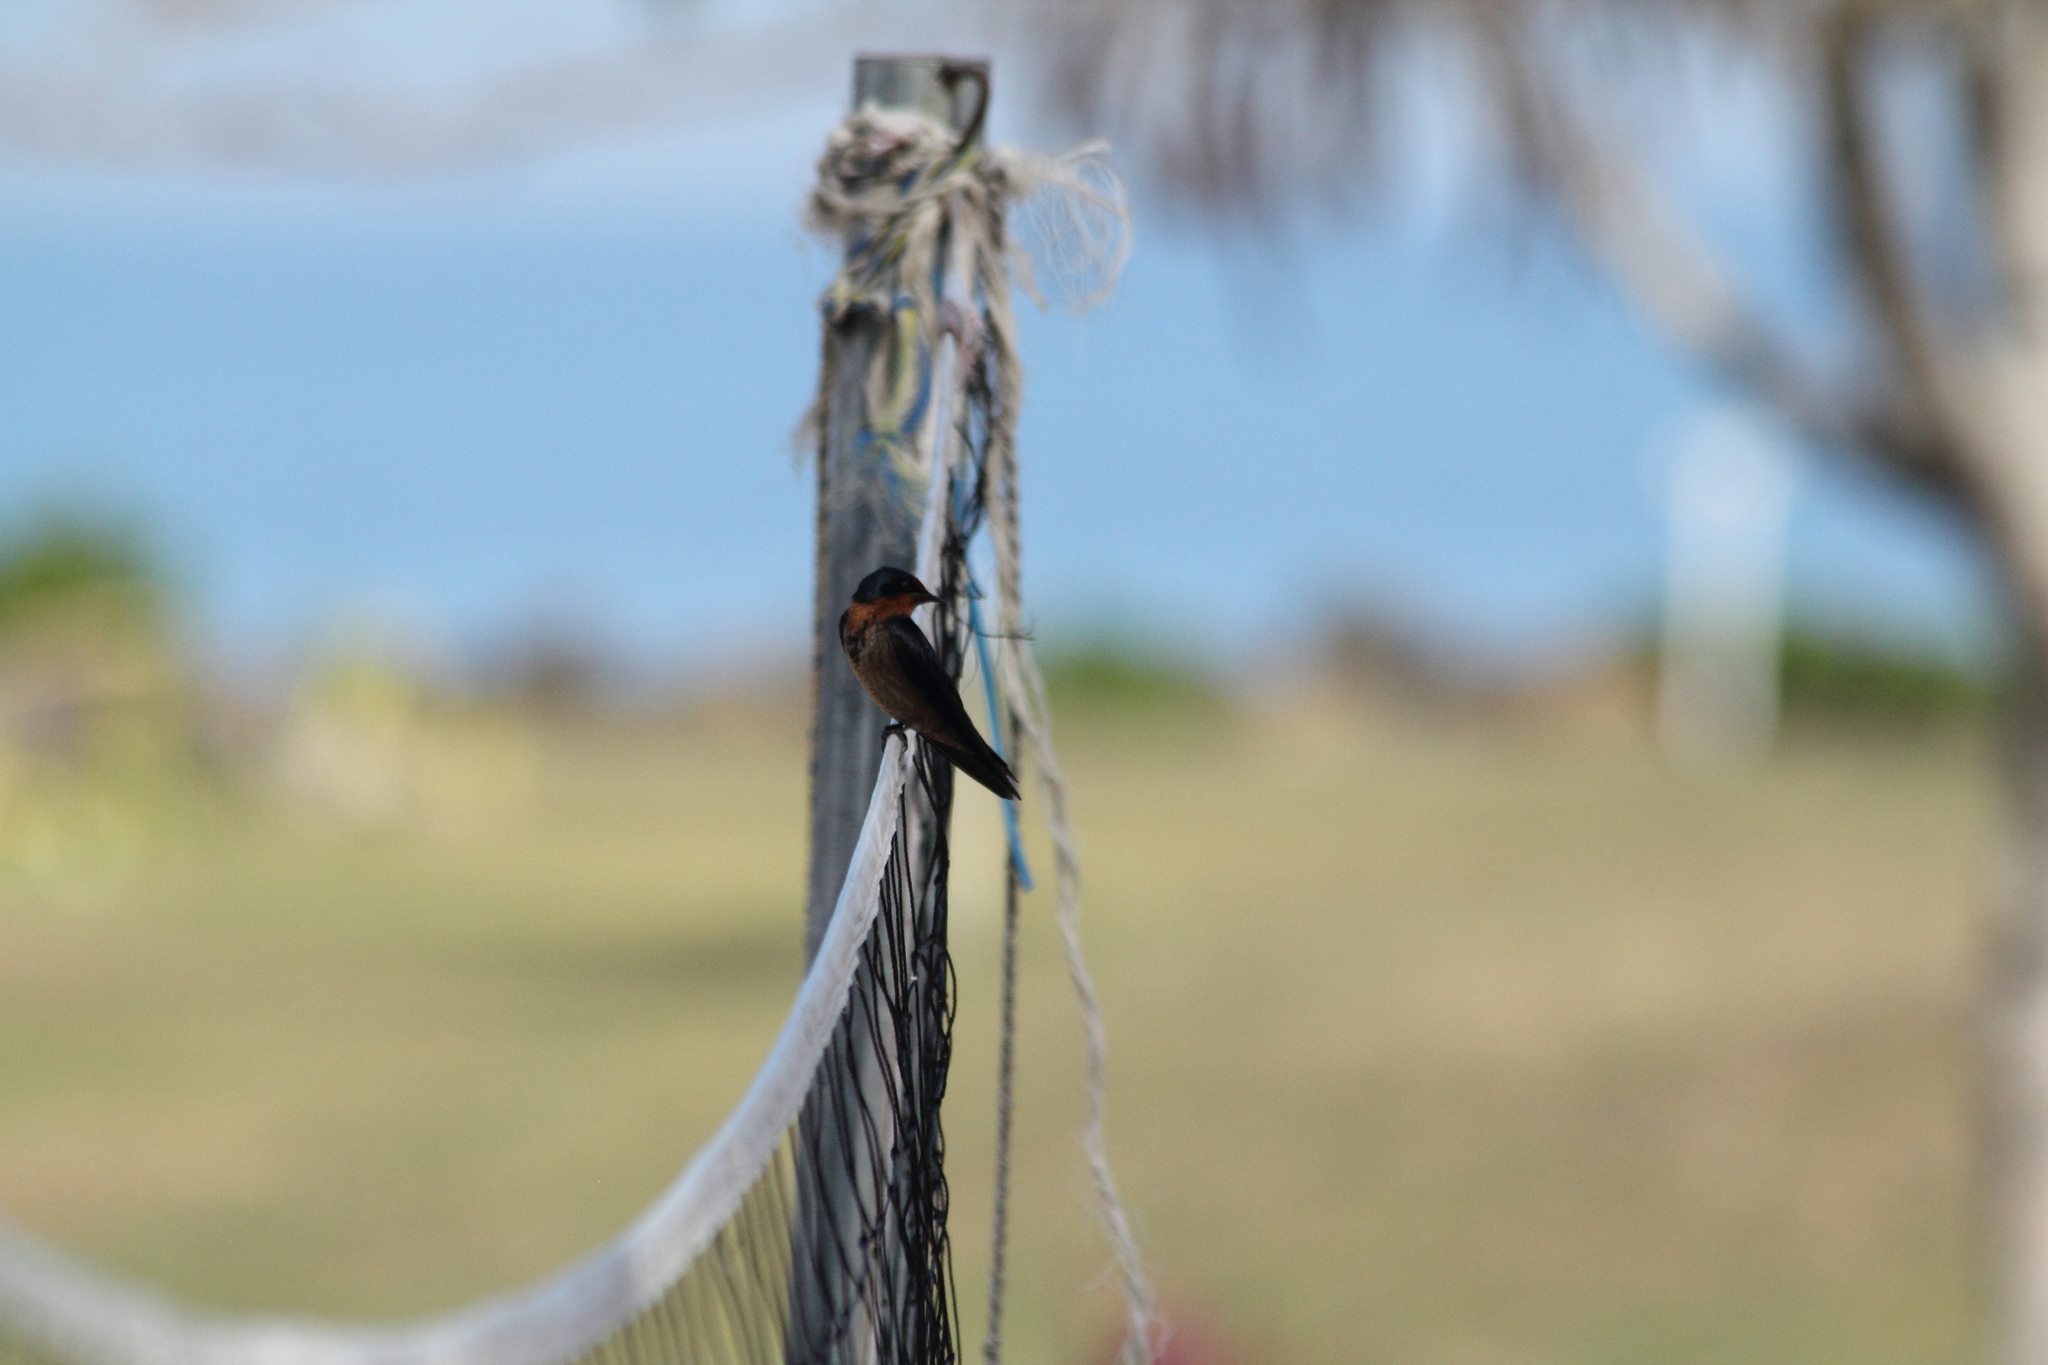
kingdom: Animalia
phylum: Chordata
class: Aves
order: Passeriformes
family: Hirundinidae
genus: Hirundo
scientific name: Hirundo tahitica
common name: Pacific swallow
